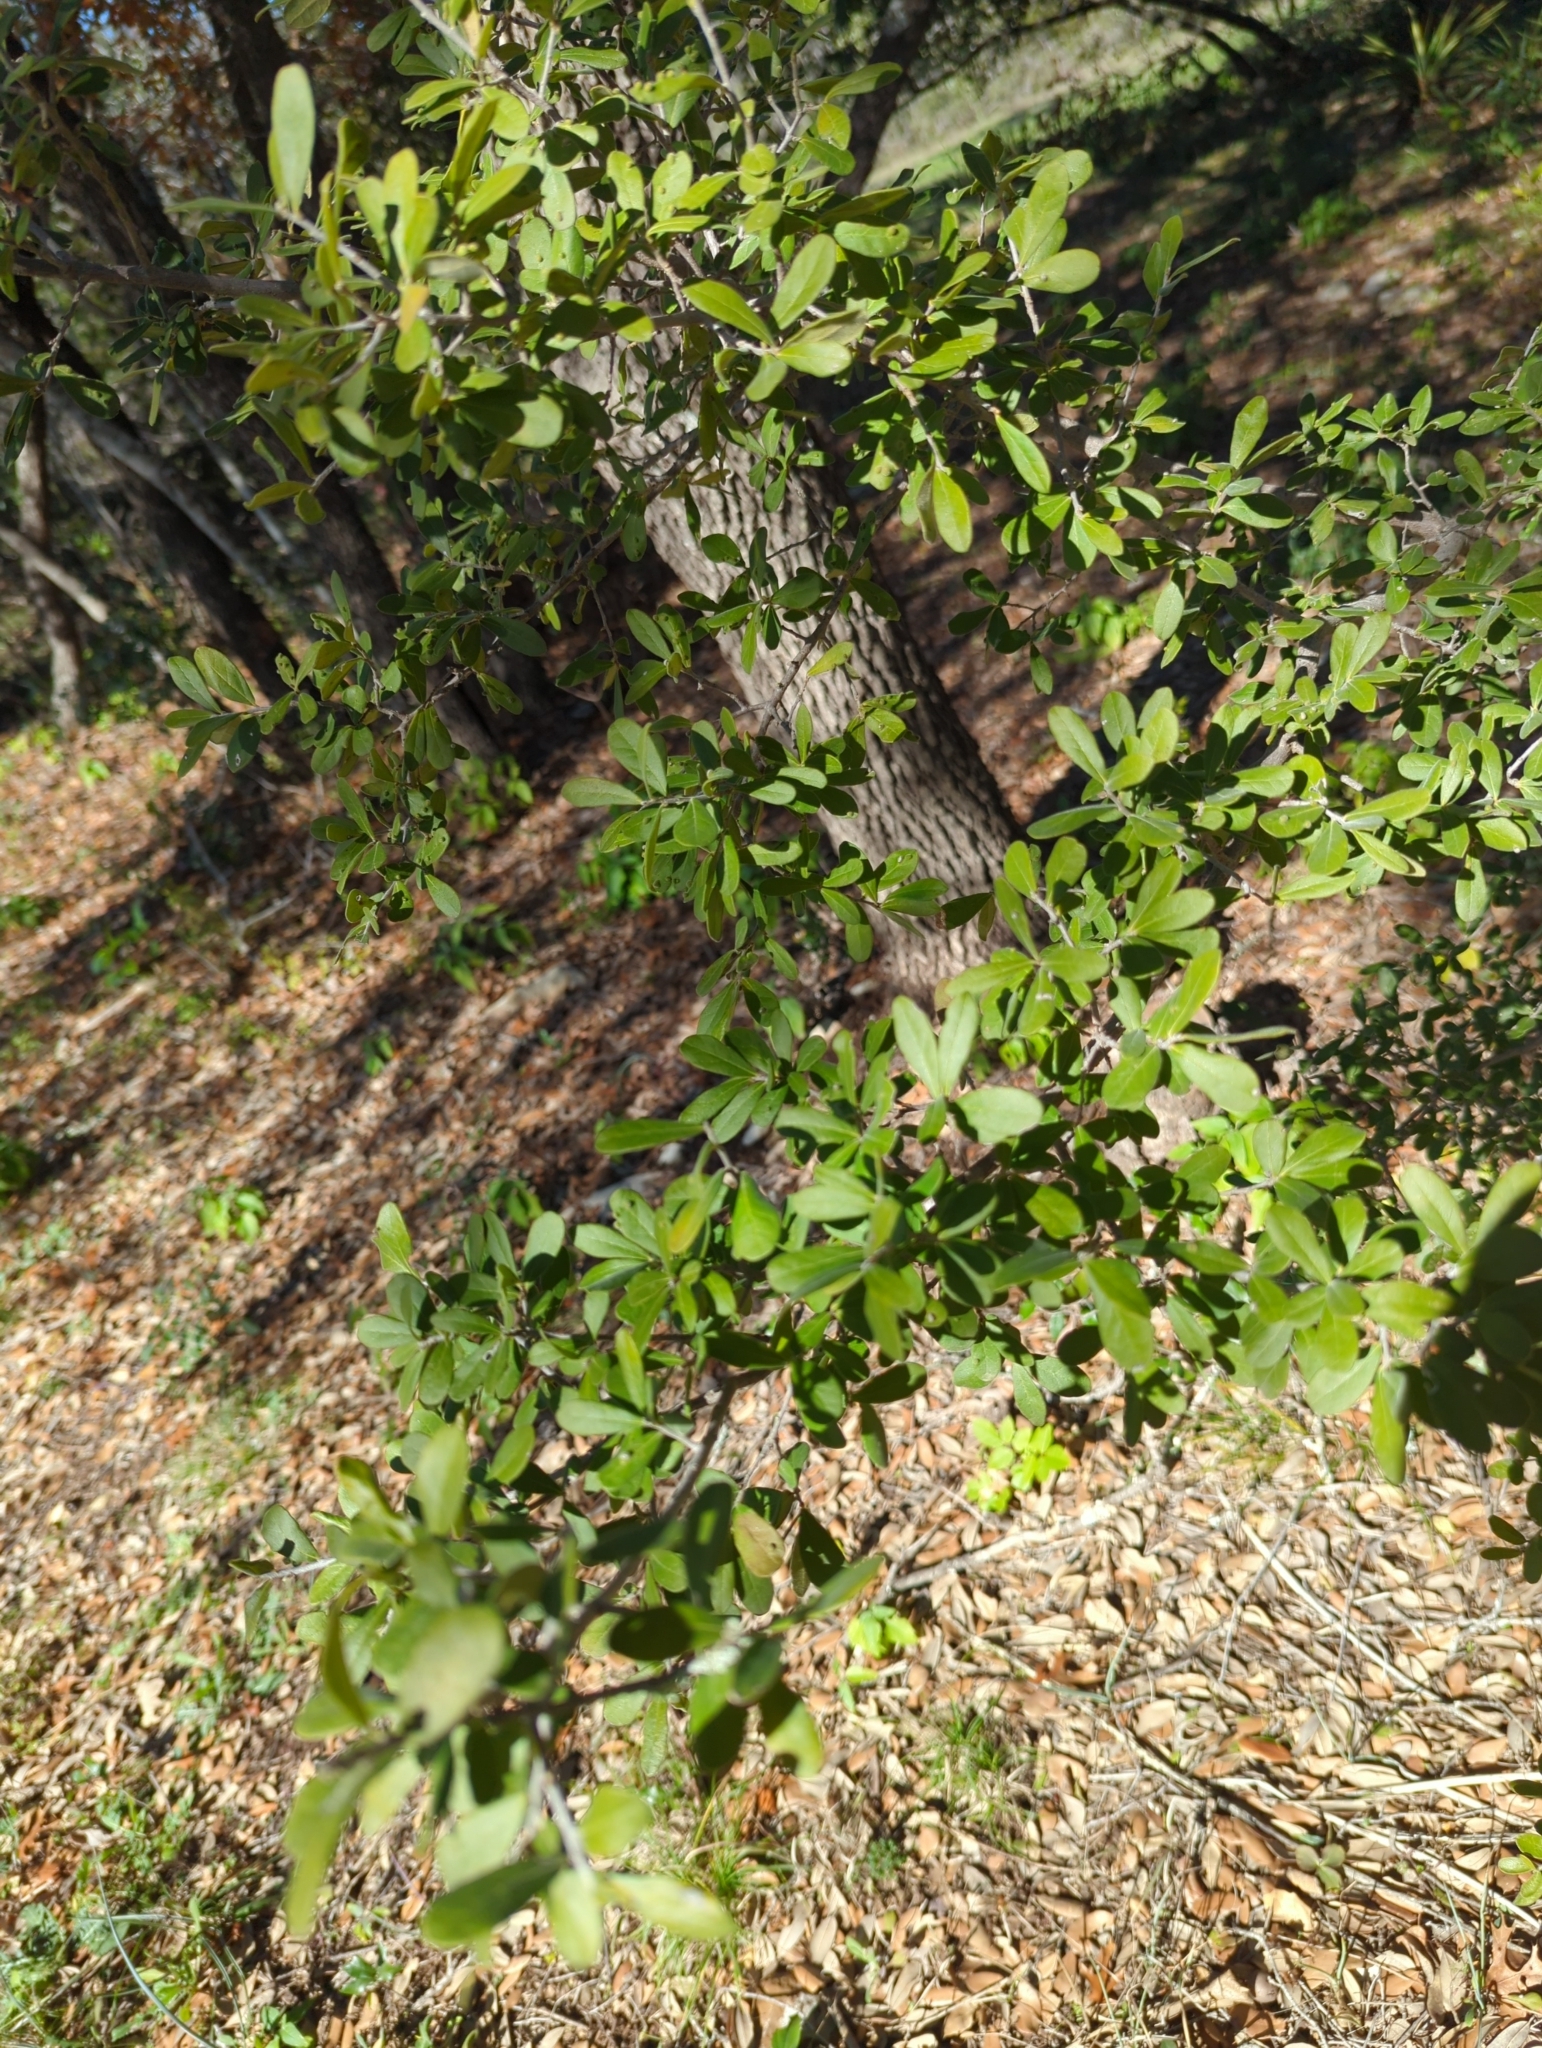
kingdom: Plantae
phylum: Tracheophyta
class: Magnoliopsida
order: Ericales
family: Ebenaceae
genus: Diospyros
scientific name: Diospyros texana
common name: Texas persimmon
